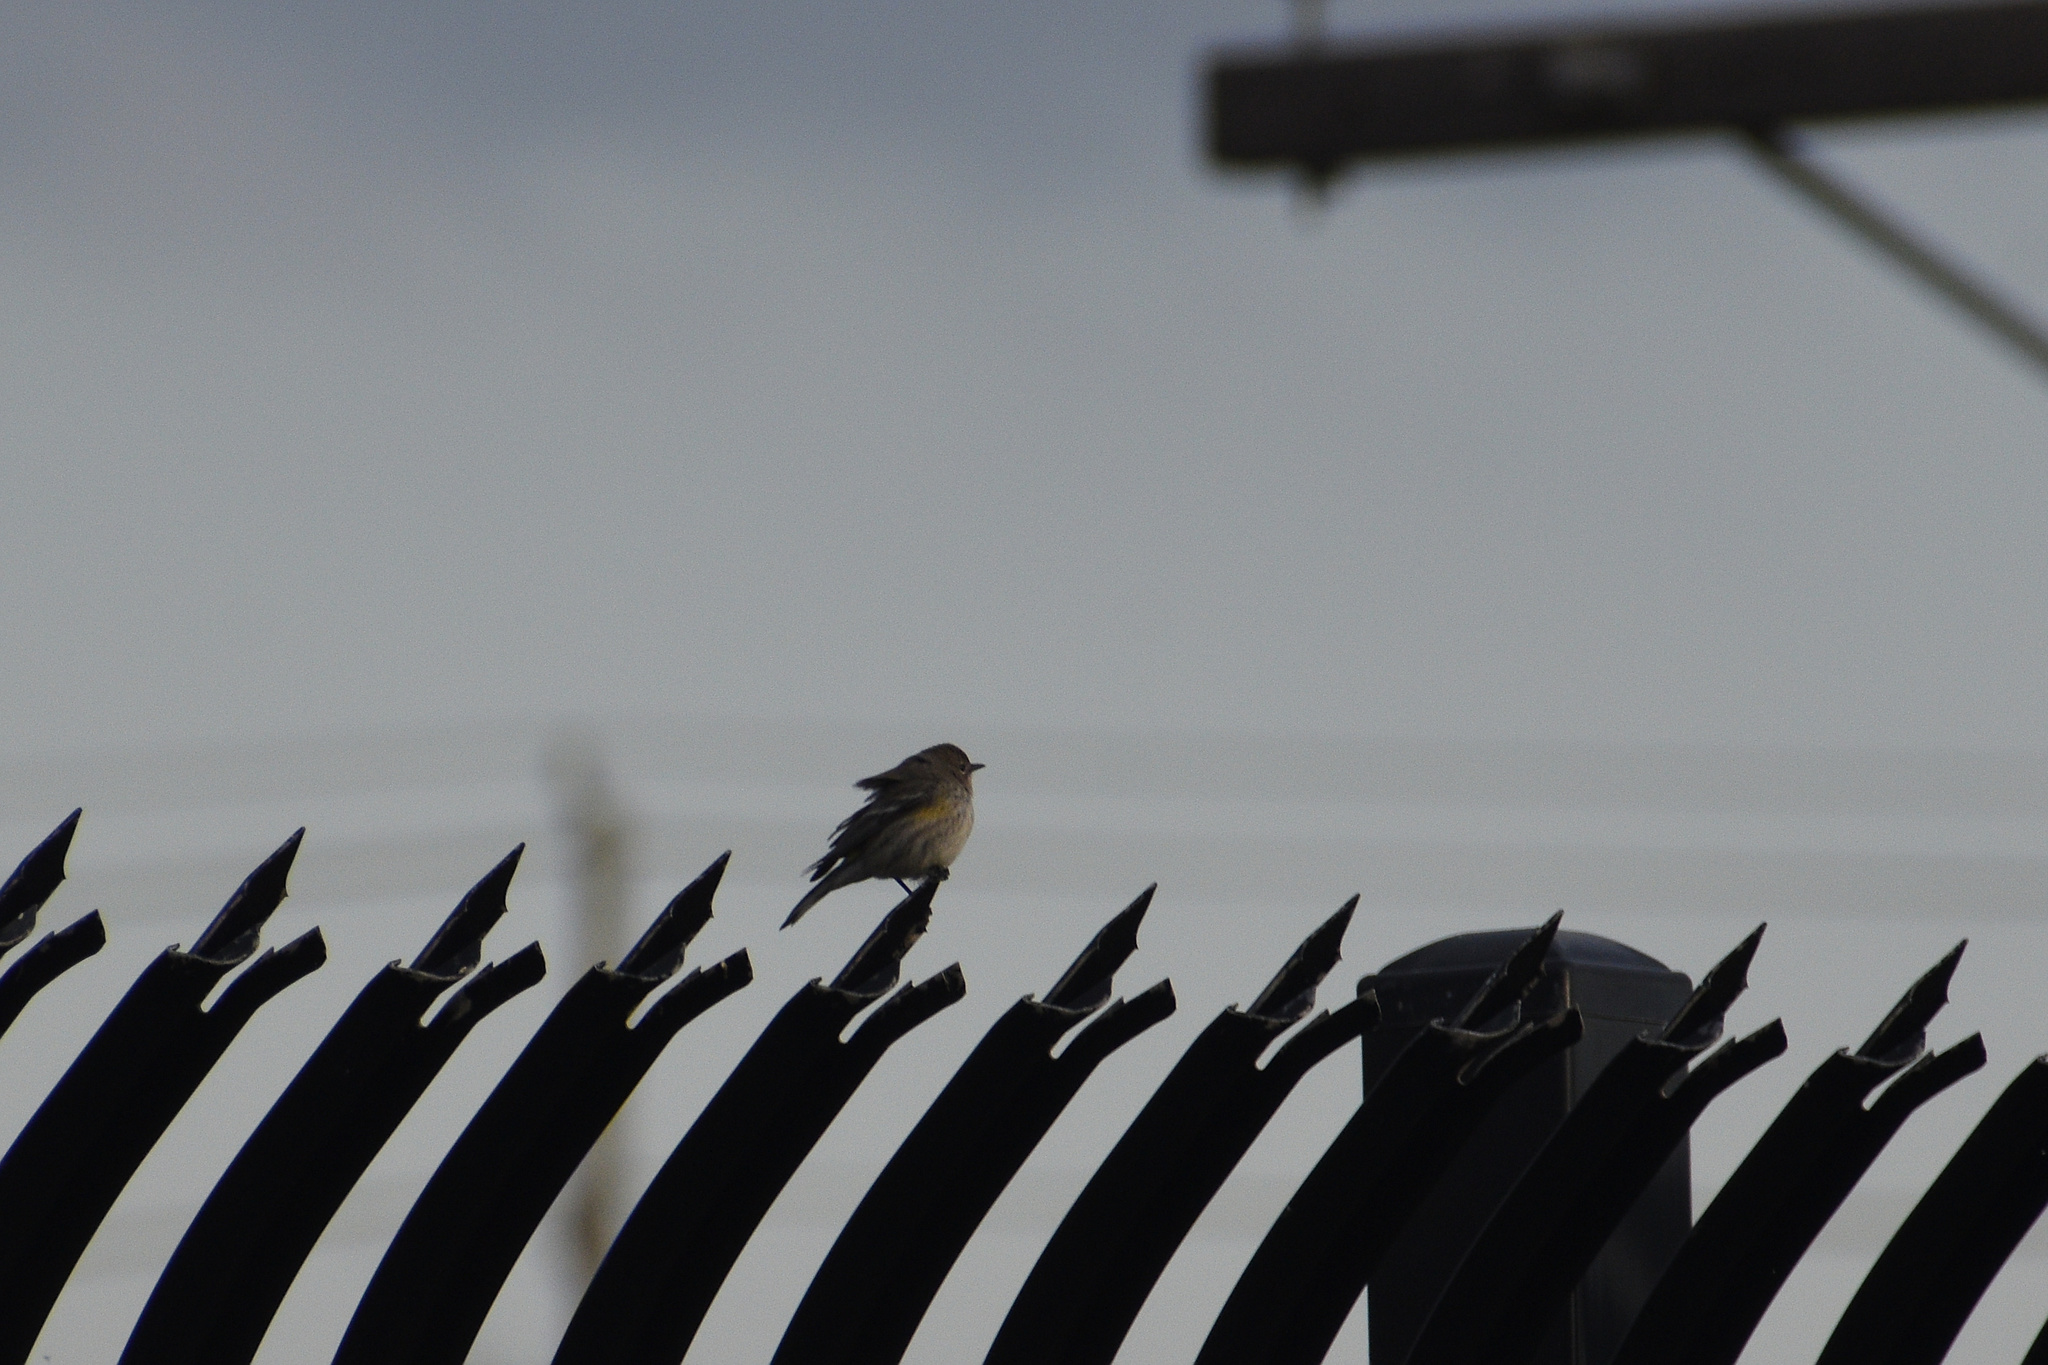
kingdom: Animalia
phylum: Chordata
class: Aves
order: Passeriformes
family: Parulidae
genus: Setophaga
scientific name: Setophaga coronata
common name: Myrtle warbler
